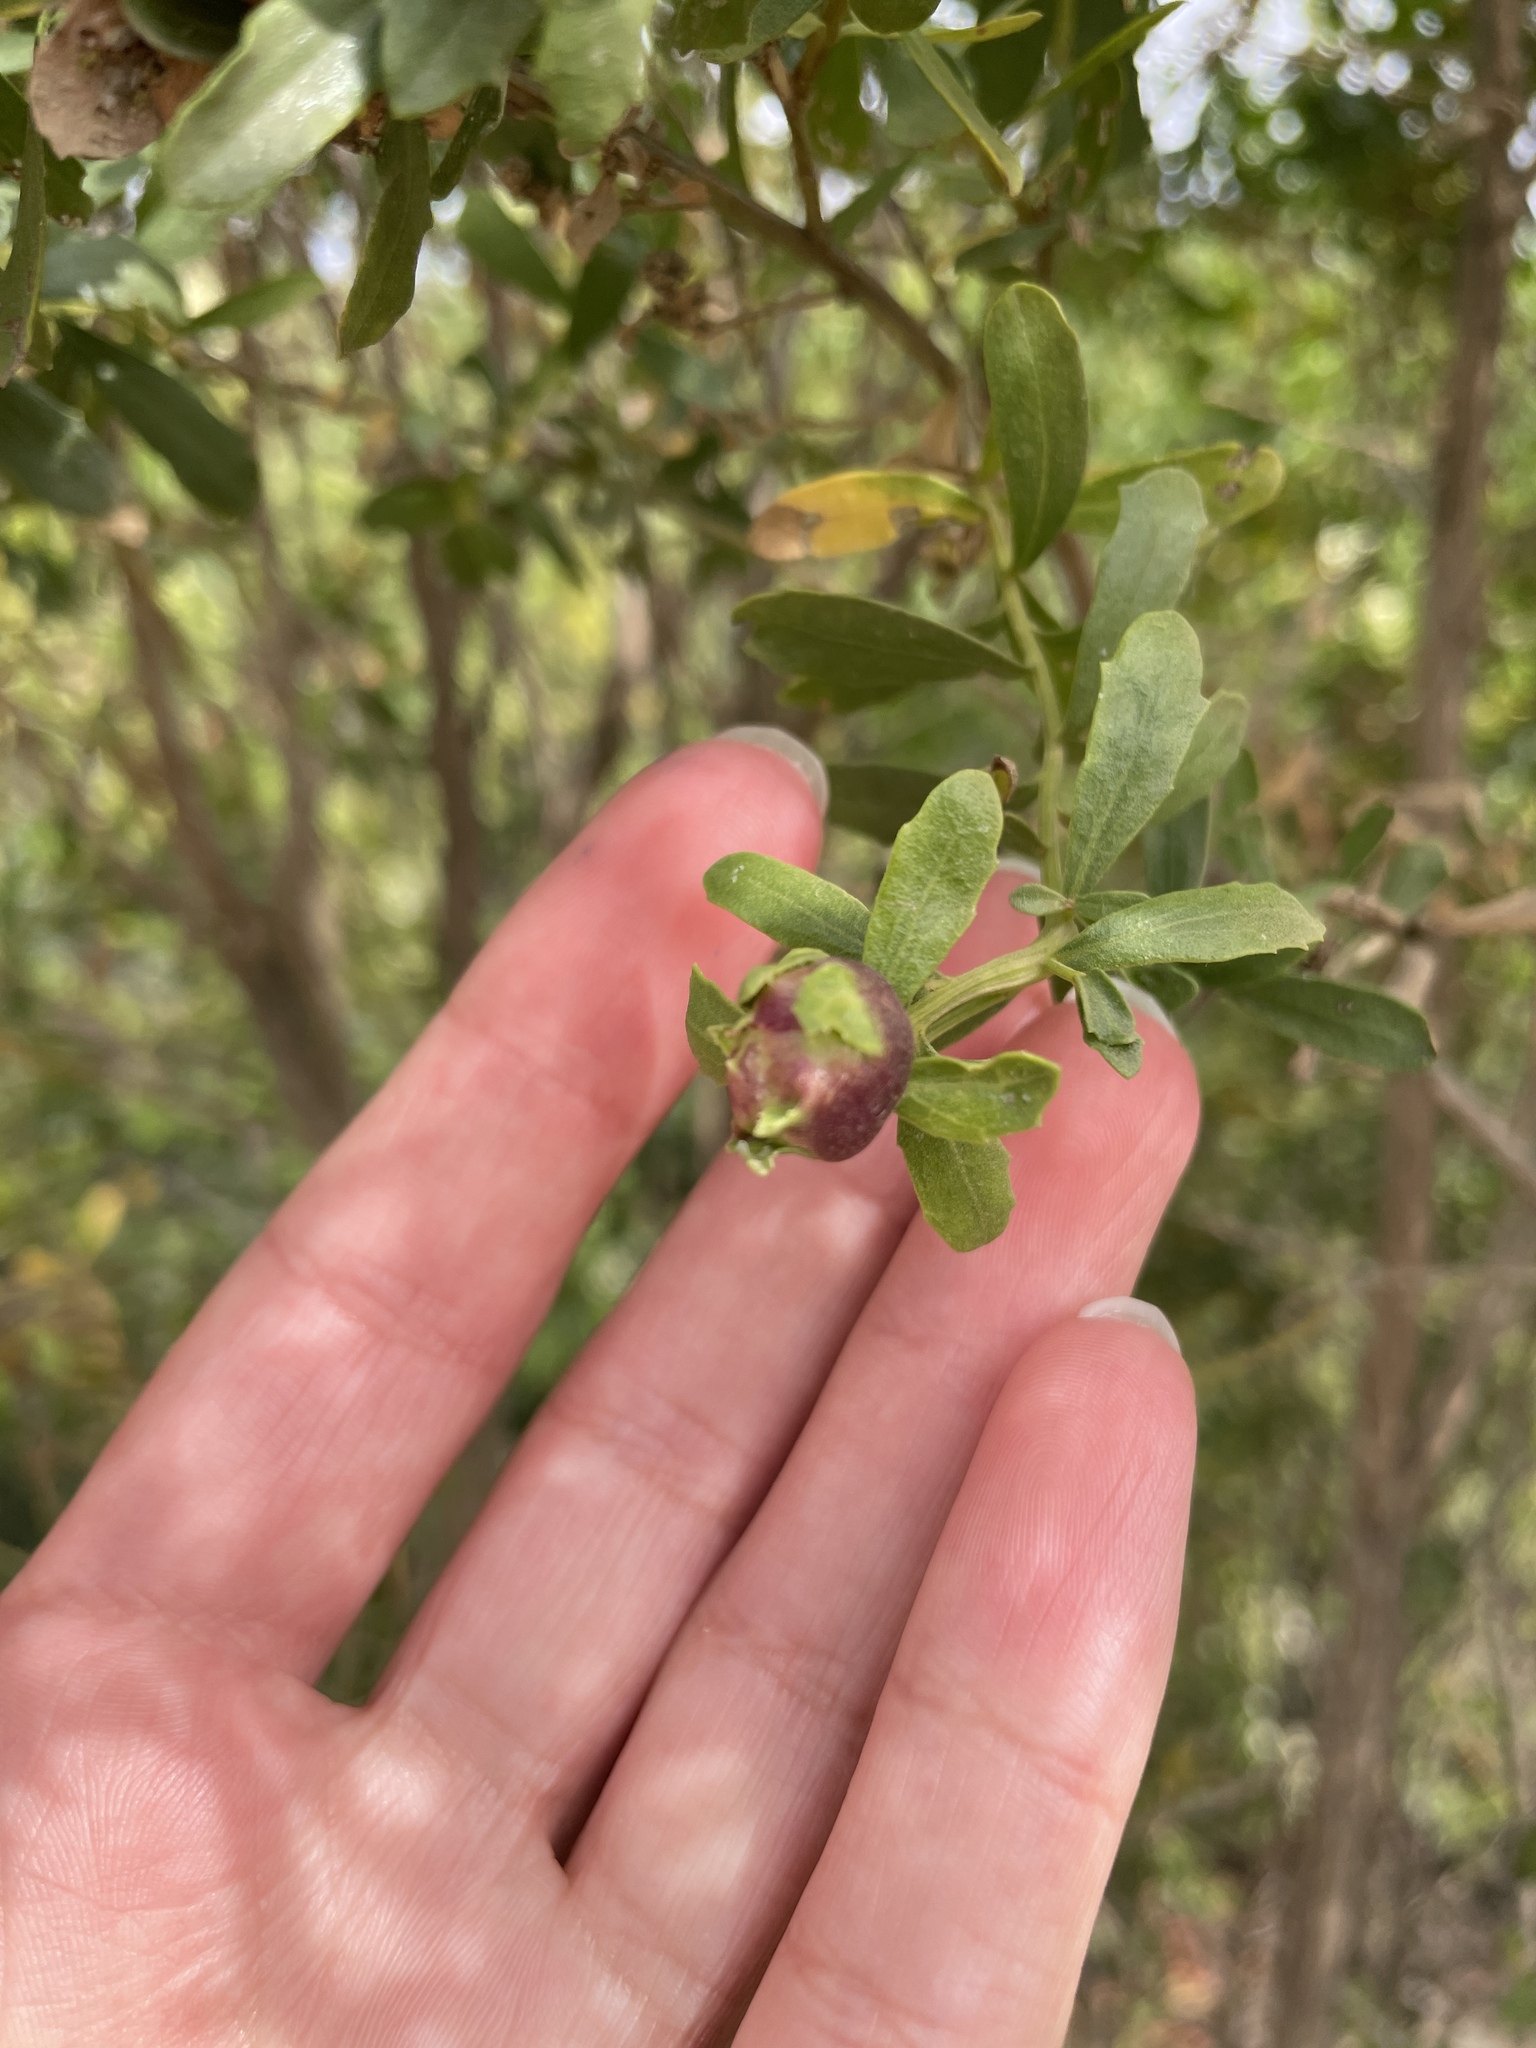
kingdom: Animalia
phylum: Arthropoda
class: Insecta
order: Diptera
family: Cecidomyiidae
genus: Rhopalomyia
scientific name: Rhopalomyia californica
